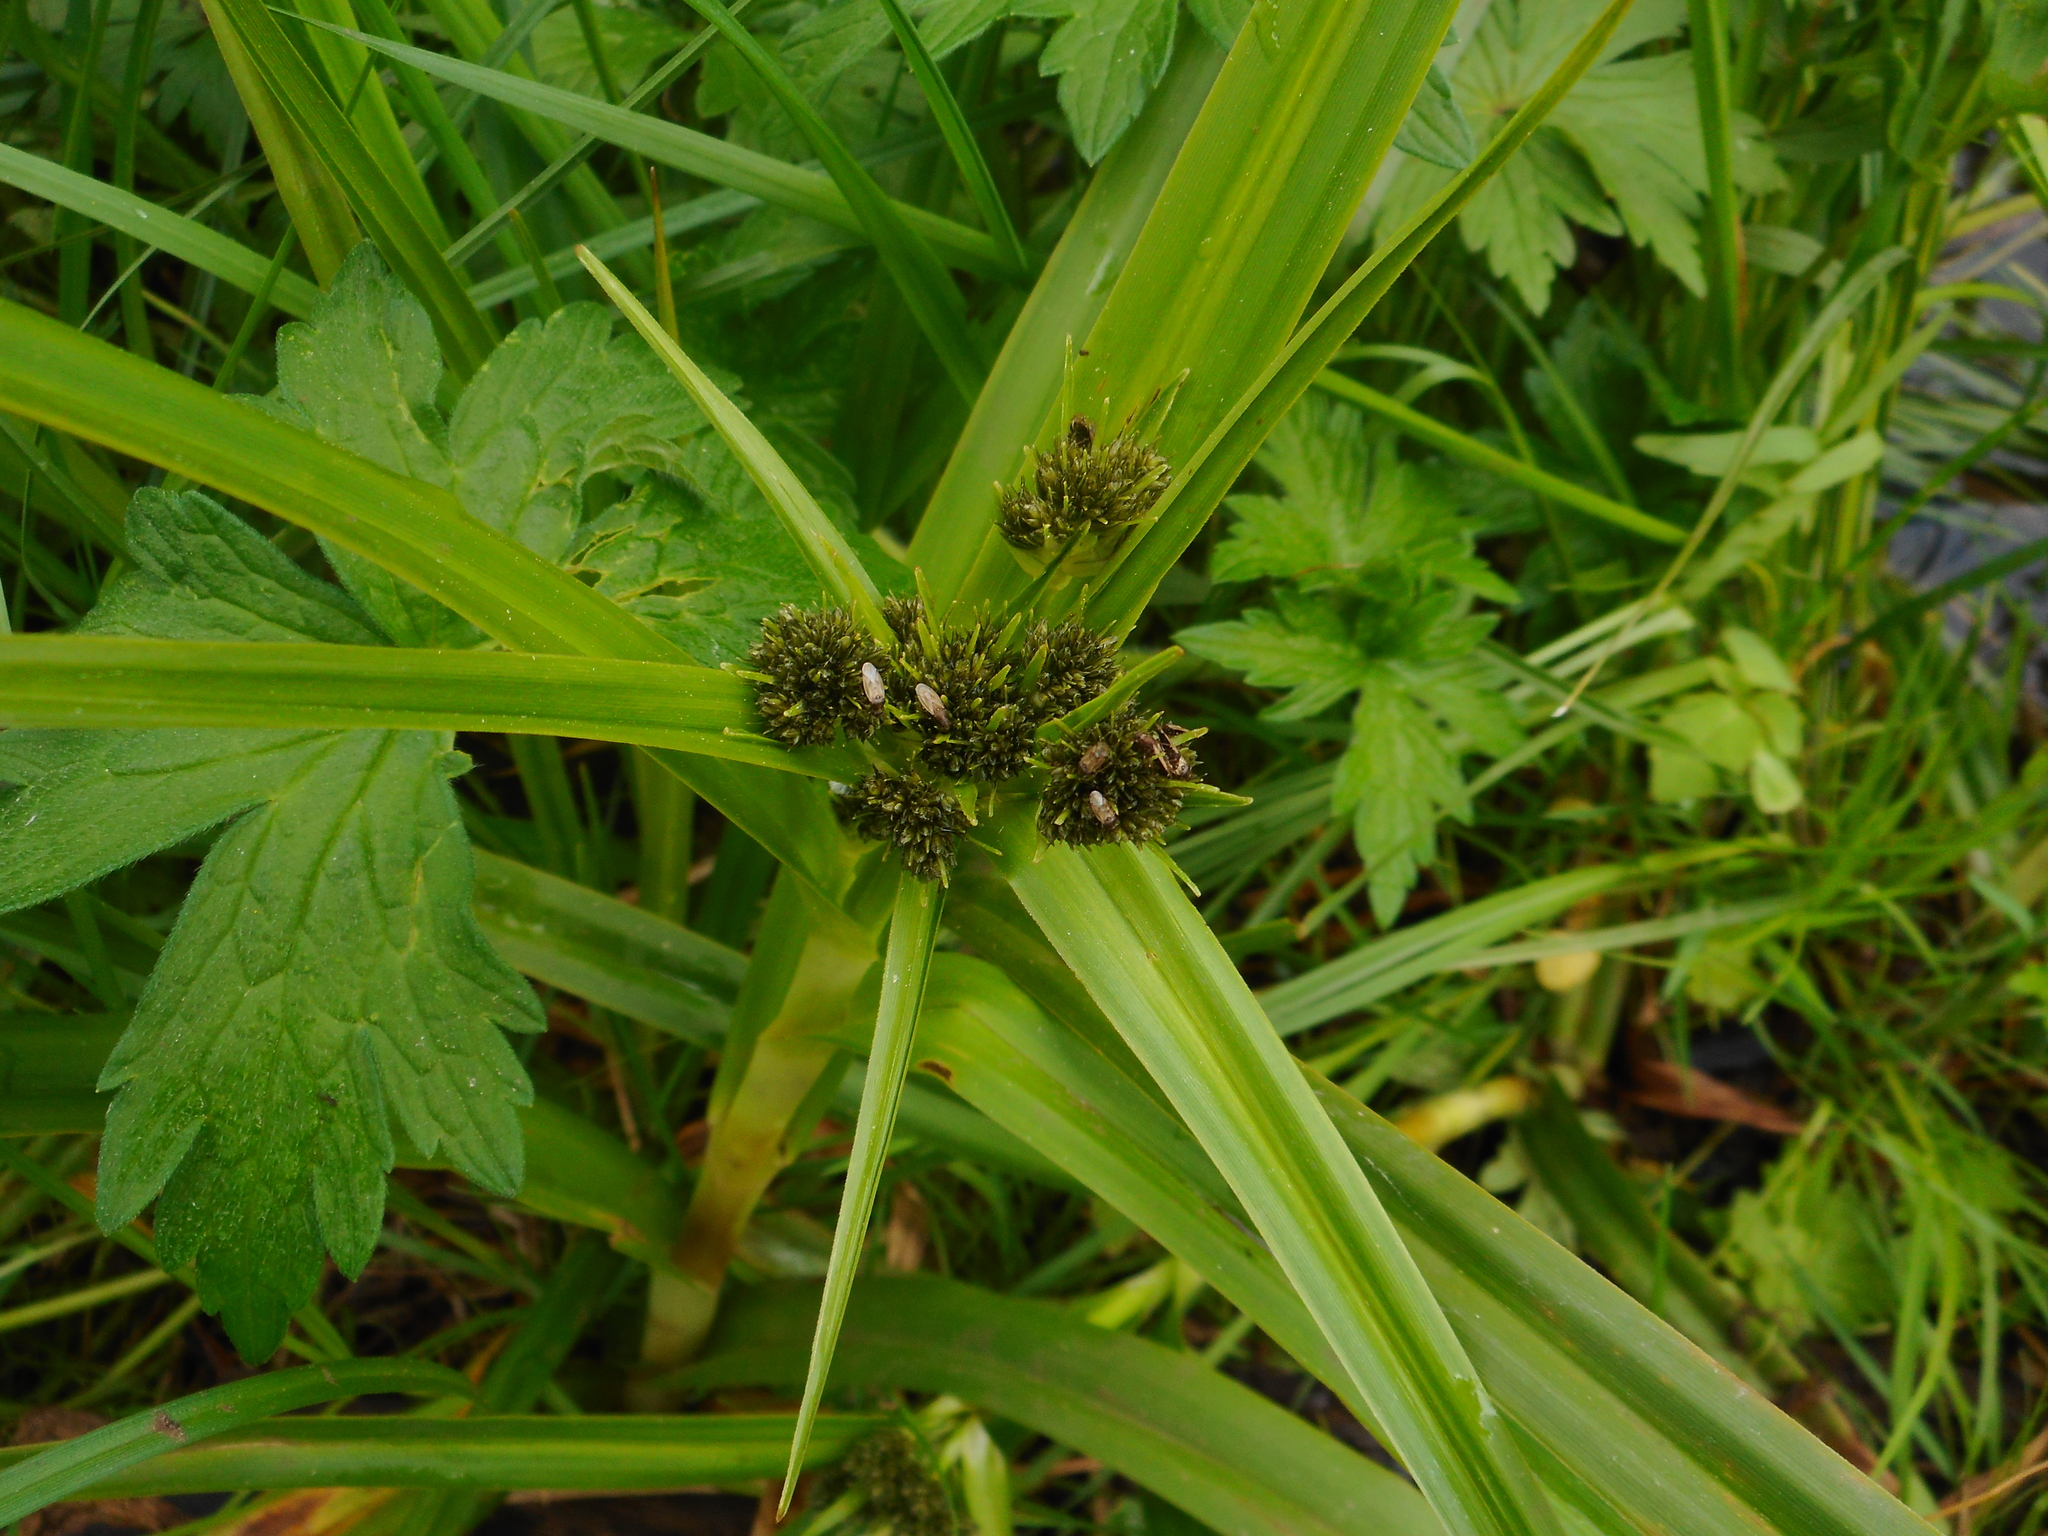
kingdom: Plantae
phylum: Tracheophyta
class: Liliopsida
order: Poales
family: Cyperaceae
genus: Scirpus
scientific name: Scirpus sylvaticus
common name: Wood club-rush
